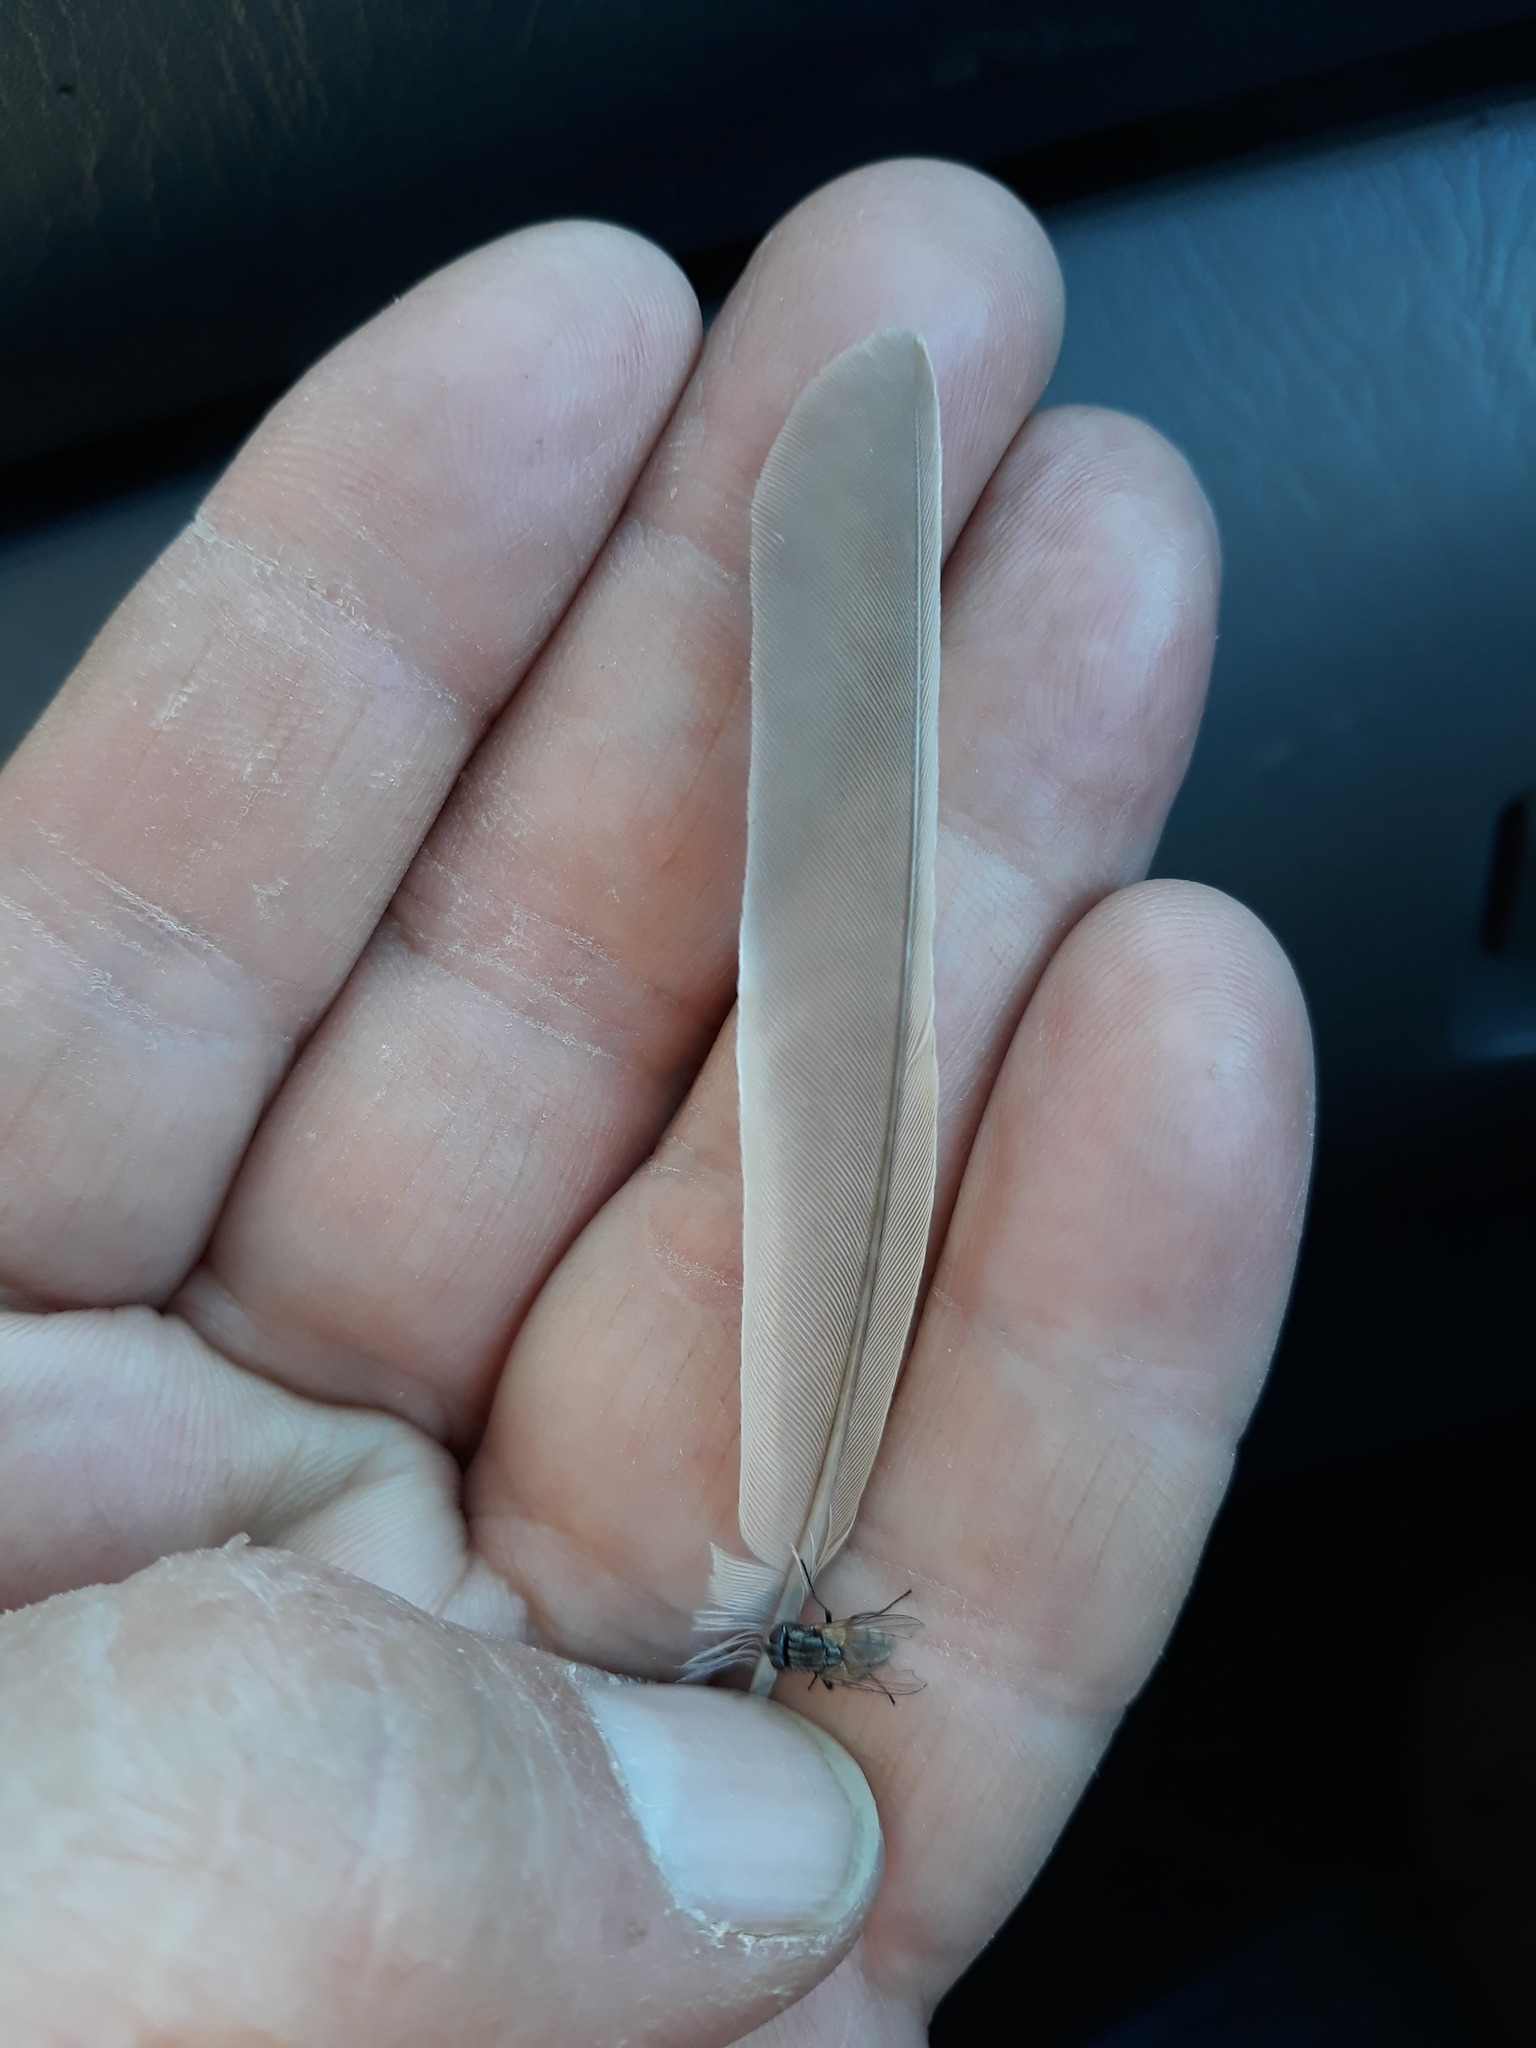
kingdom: Animalia
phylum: Chordata
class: Aves
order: Passeriformes
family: Alaudidae
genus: Ammomanes
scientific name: Ammomanes deserti
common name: Desert lark
